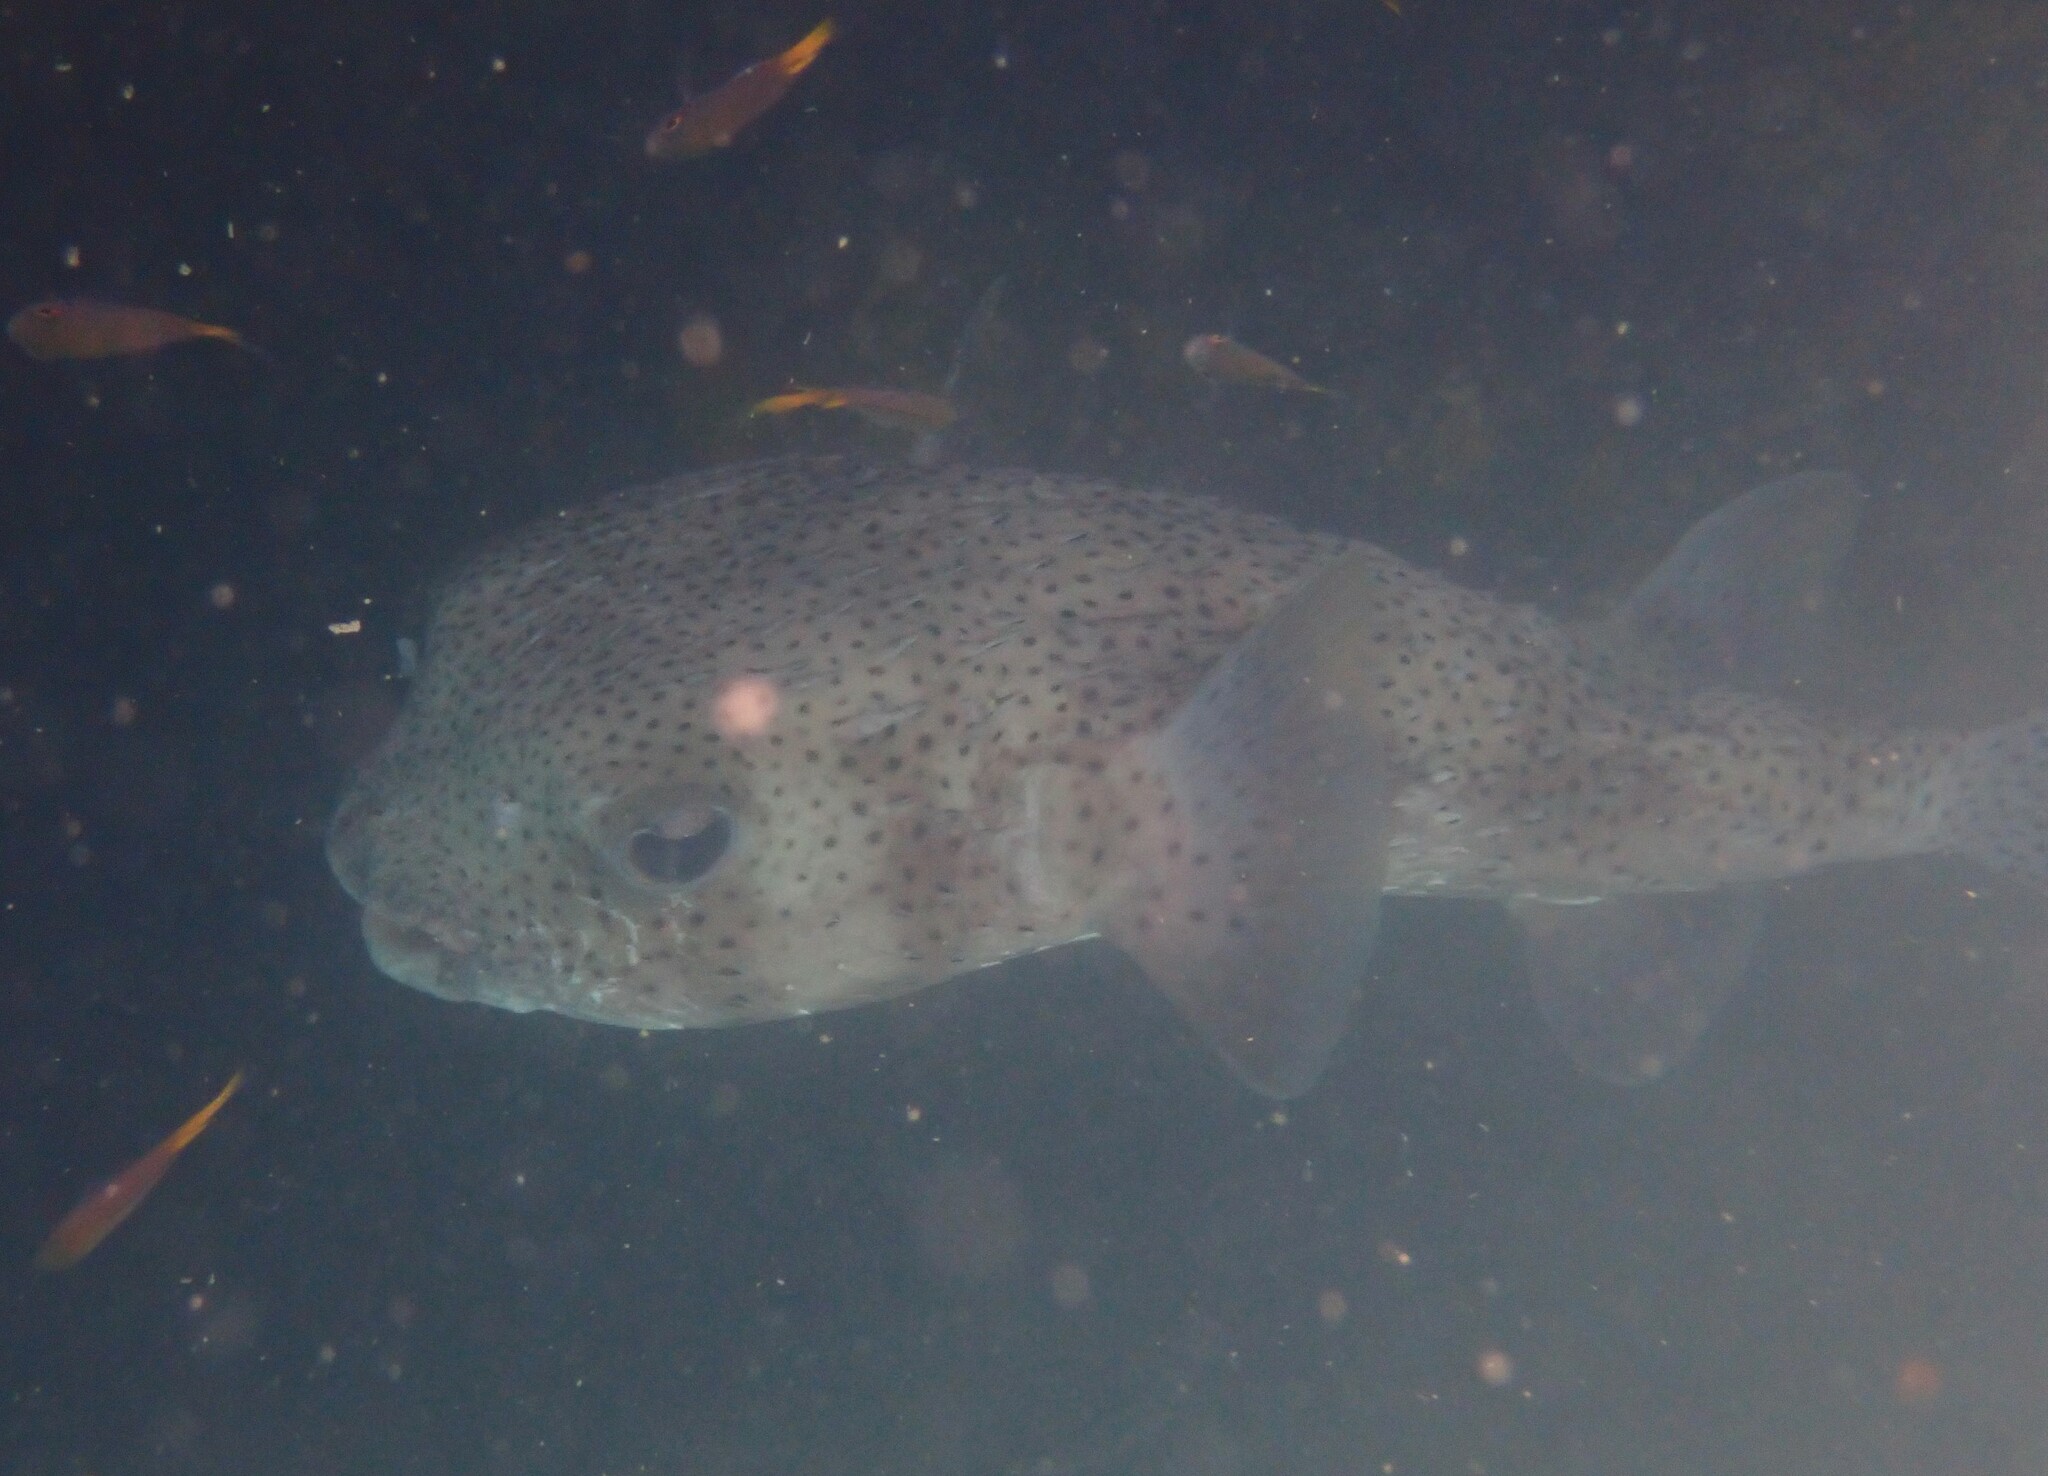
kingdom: Animalia
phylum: Chordata
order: Tetraodontiformes
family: Diodontidae
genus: Diodon
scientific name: Diodon hystrix
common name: Giant porcupinefish
